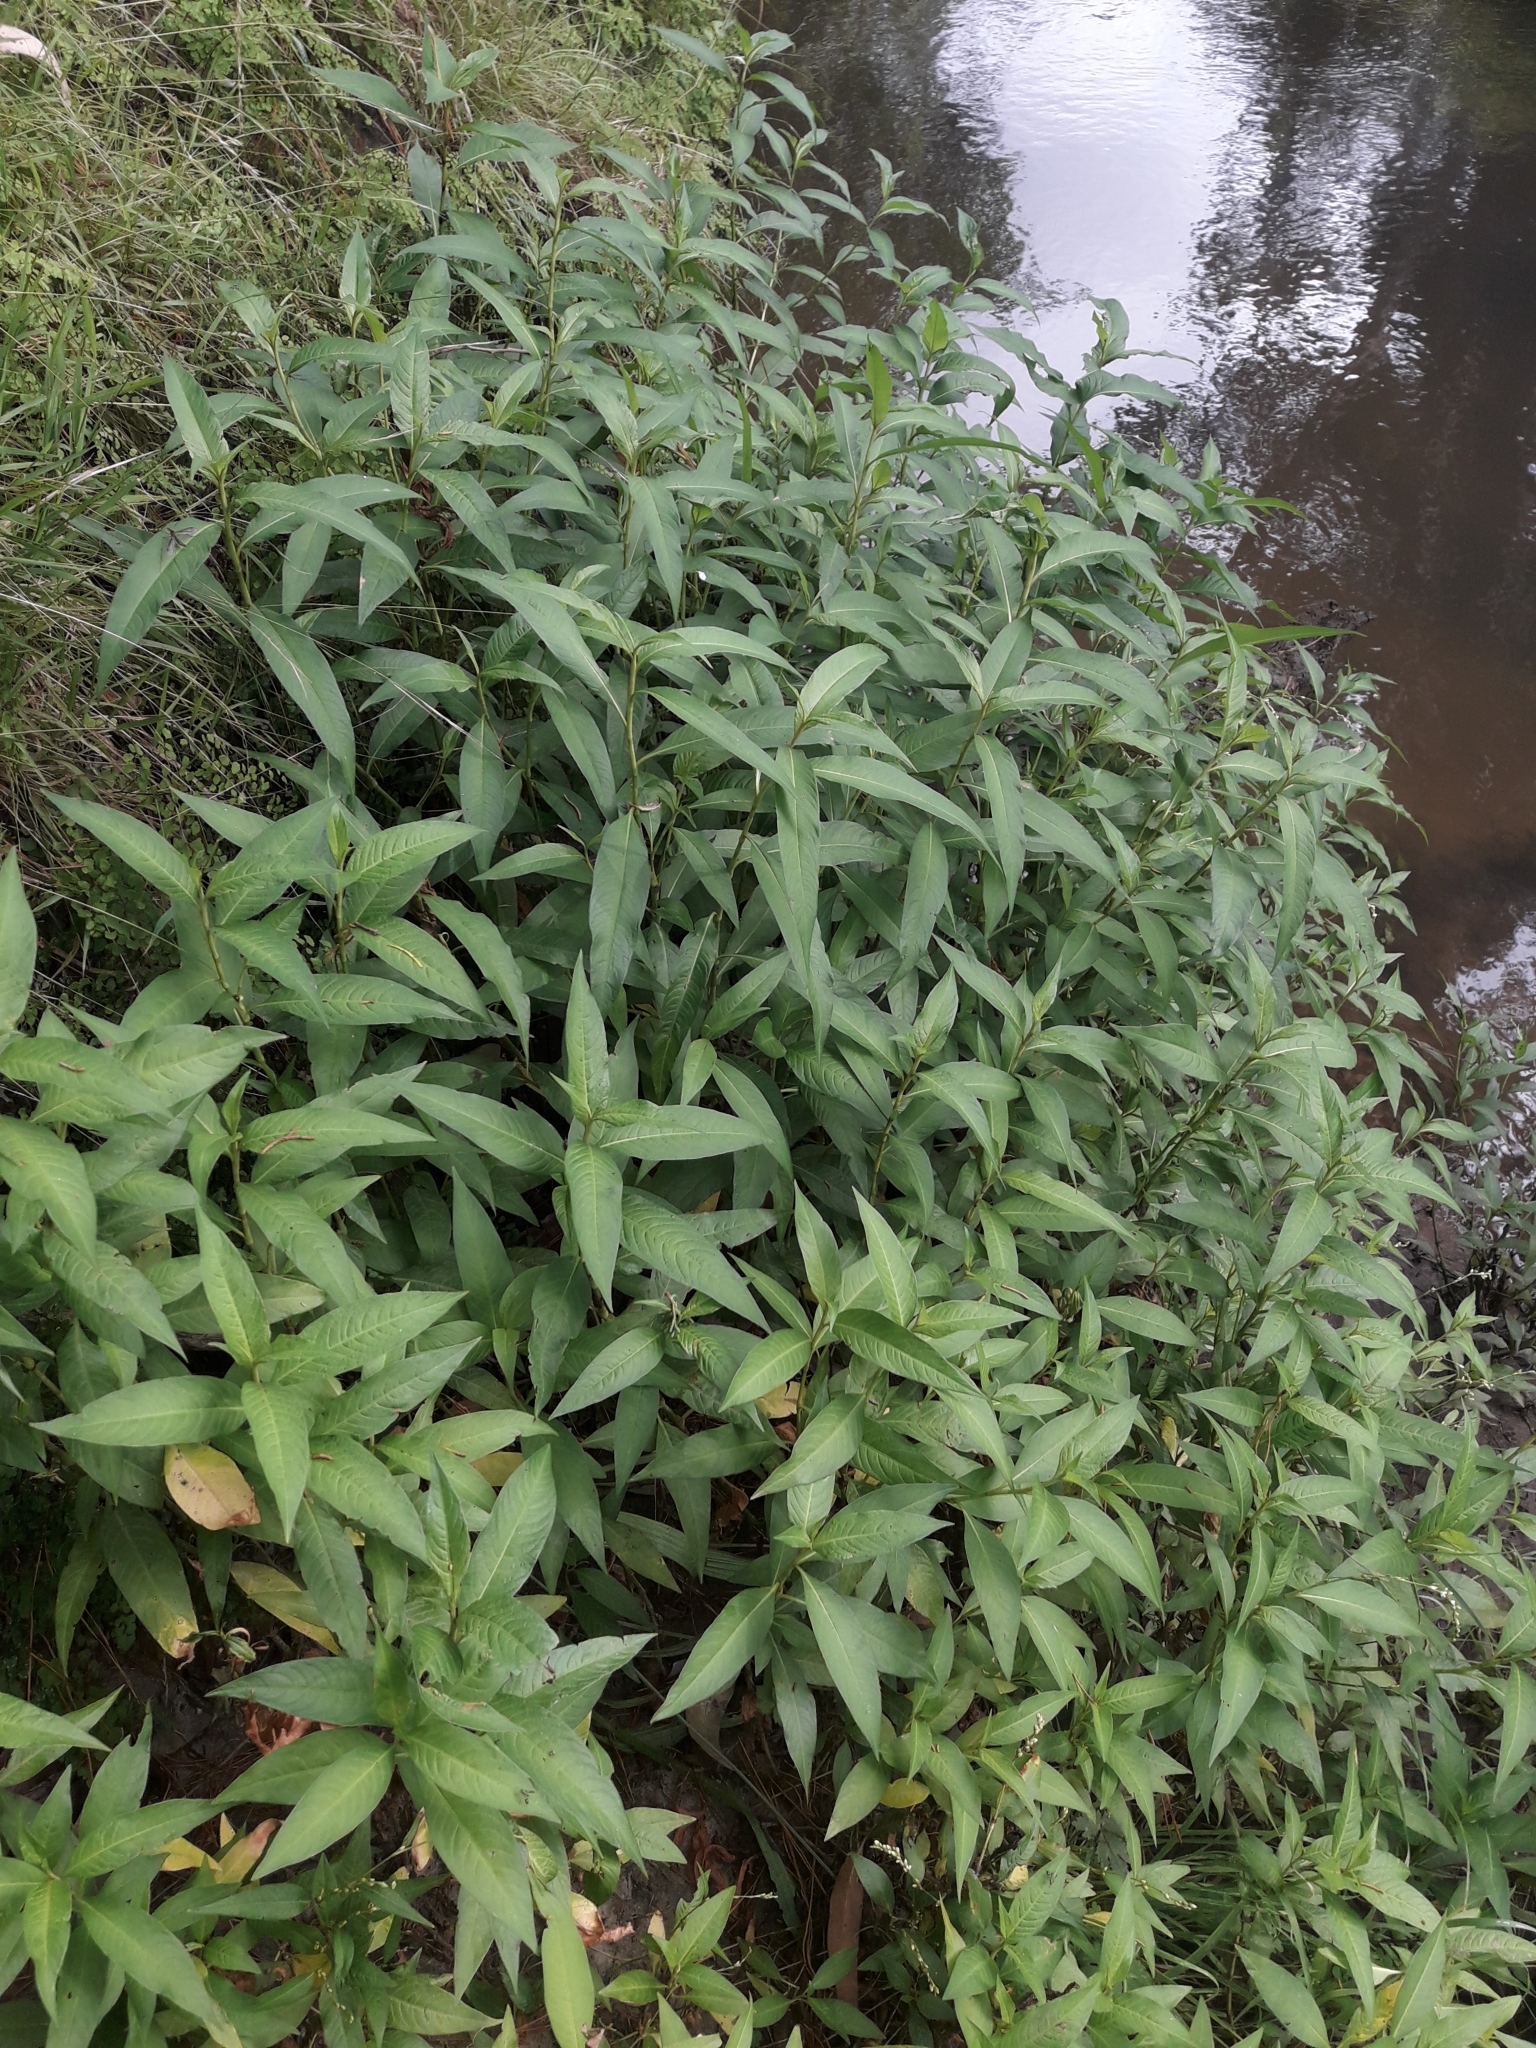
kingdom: Plantae
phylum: Tracheophyta
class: Magnoliopsida
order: Caryophyllales
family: Polygonaceae
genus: Persicaria
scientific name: Persicaria hydropiper
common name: Water-pepper
